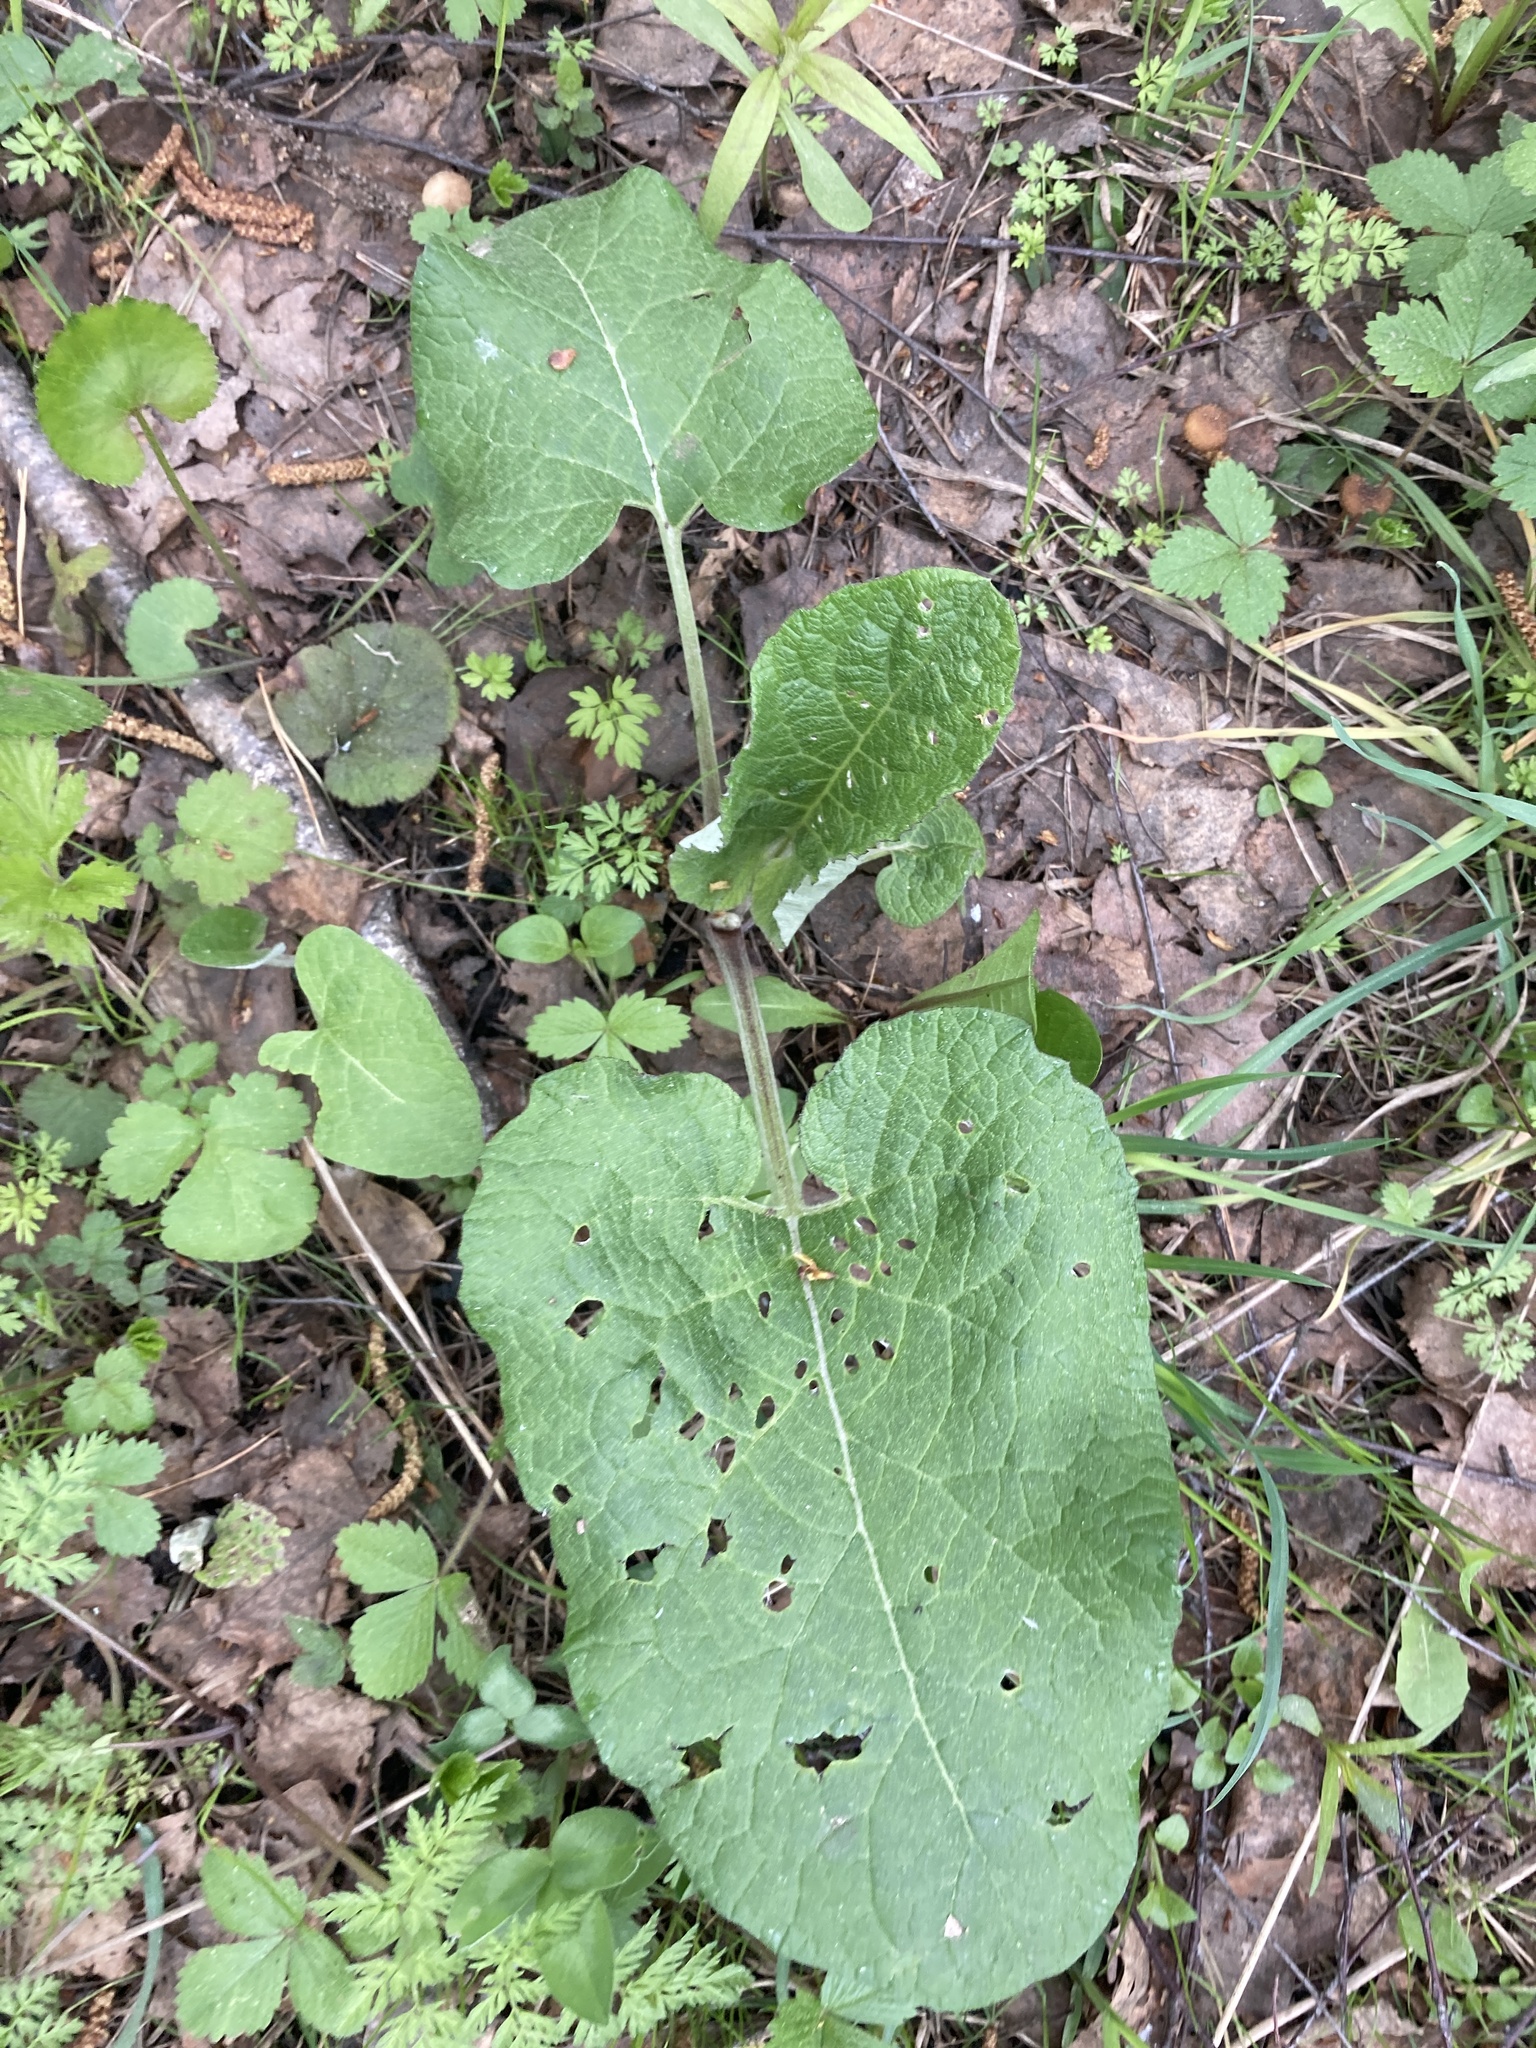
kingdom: Plantae
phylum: Tracheophyta
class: Magnoliopsida
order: Asterales
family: Asteraceae
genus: Arctium
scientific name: Arctium
